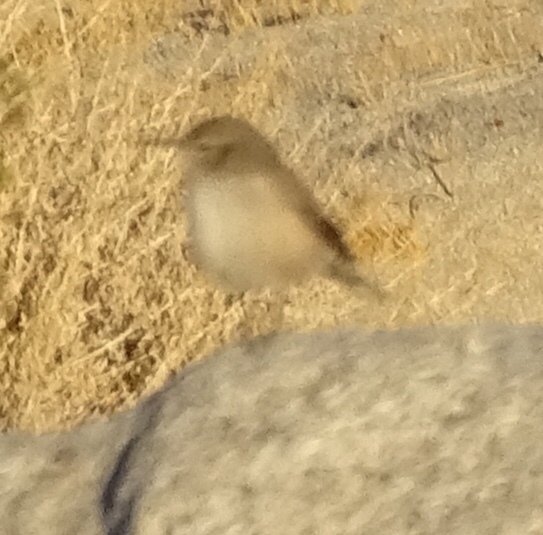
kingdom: Animalia
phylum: Chordata
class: Aves
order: Passeriformes
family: Troglodytidae
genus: Salpinctes
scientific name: Salpinctes obsoletus
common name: Rock wren
